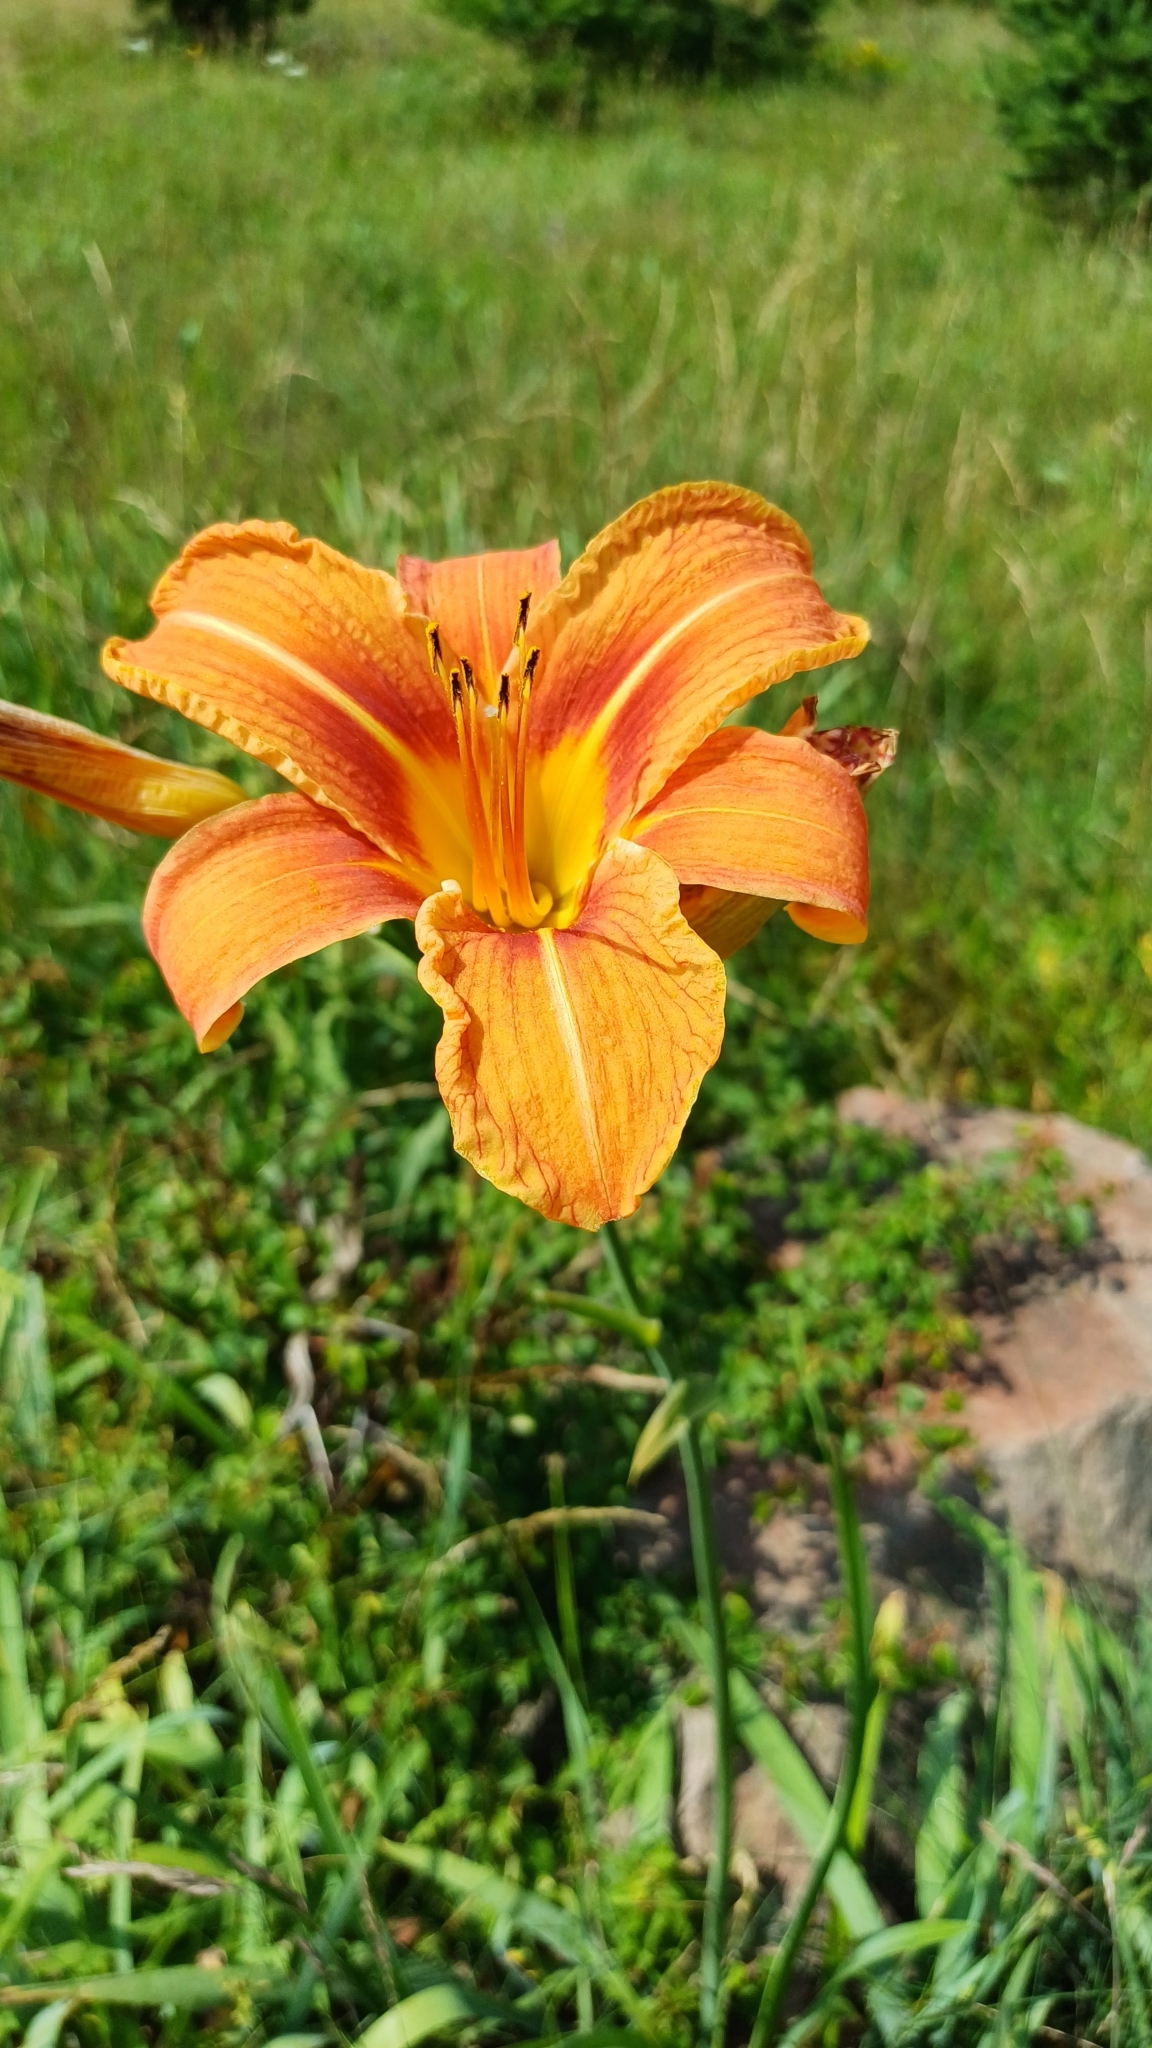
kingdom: Plantae
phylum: Tracheophyta
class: Liliopsida
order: Asparagales
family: Asphodelaceae
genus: Hemerocallis
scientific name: Hemerocallis fulva
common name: Orange day-lily
